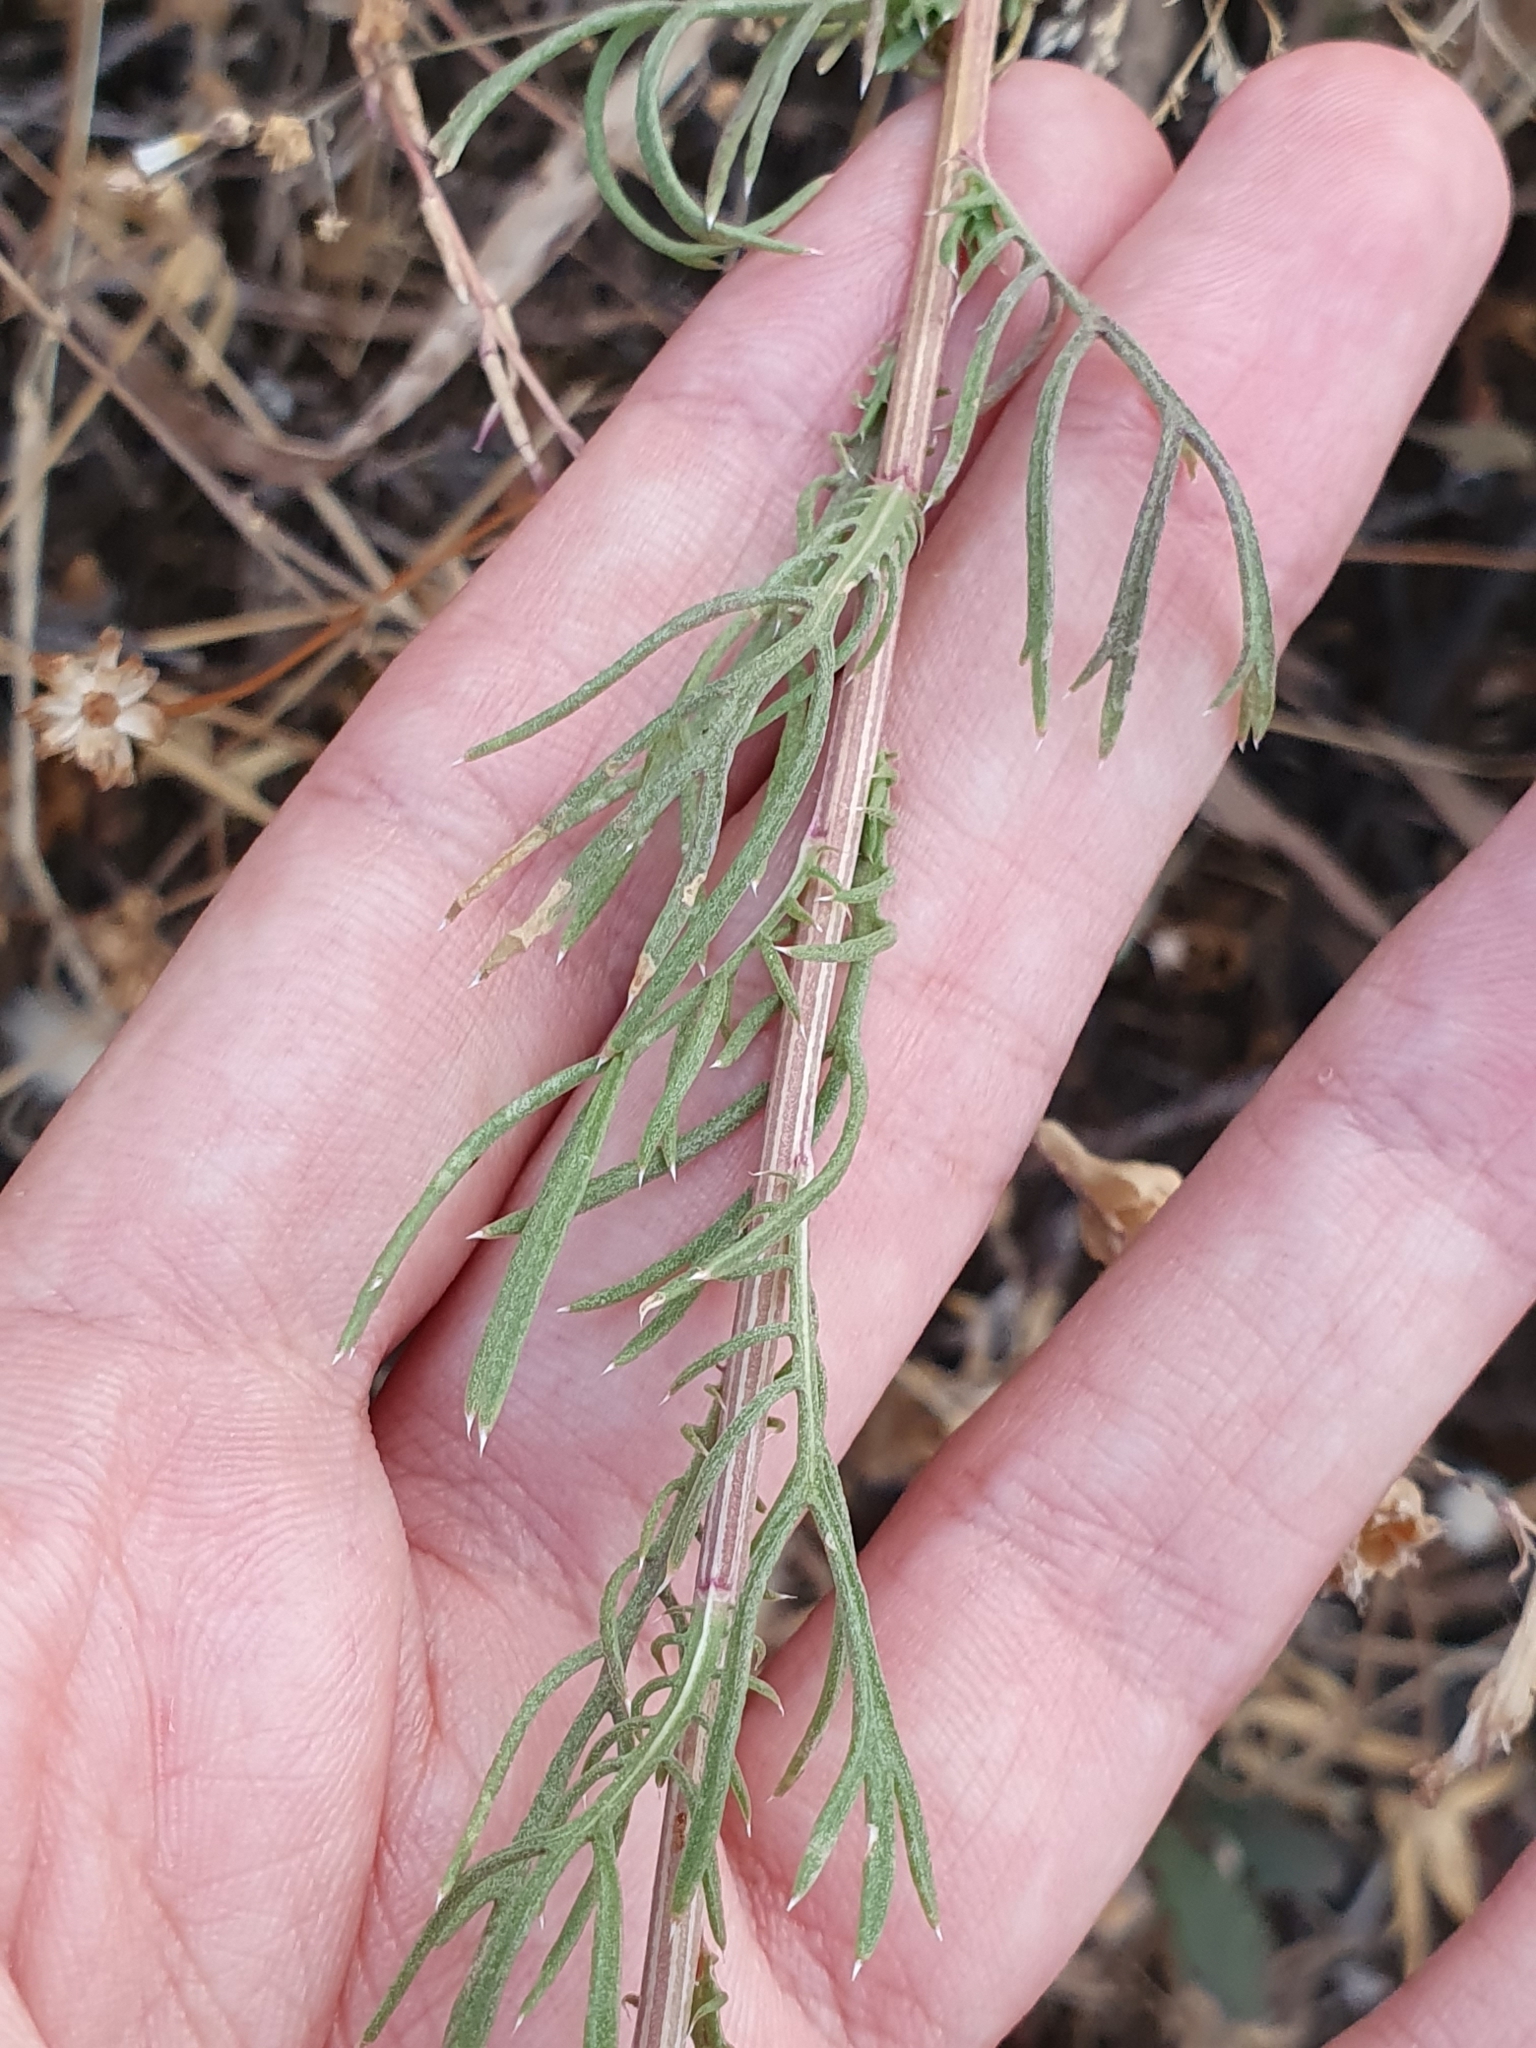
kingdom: Plantae
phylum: Tracheophyta
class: Magnoliopsida
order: Asterales
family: Asteraceae
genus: Lonas
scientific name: Lonas annua
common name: African daisy
